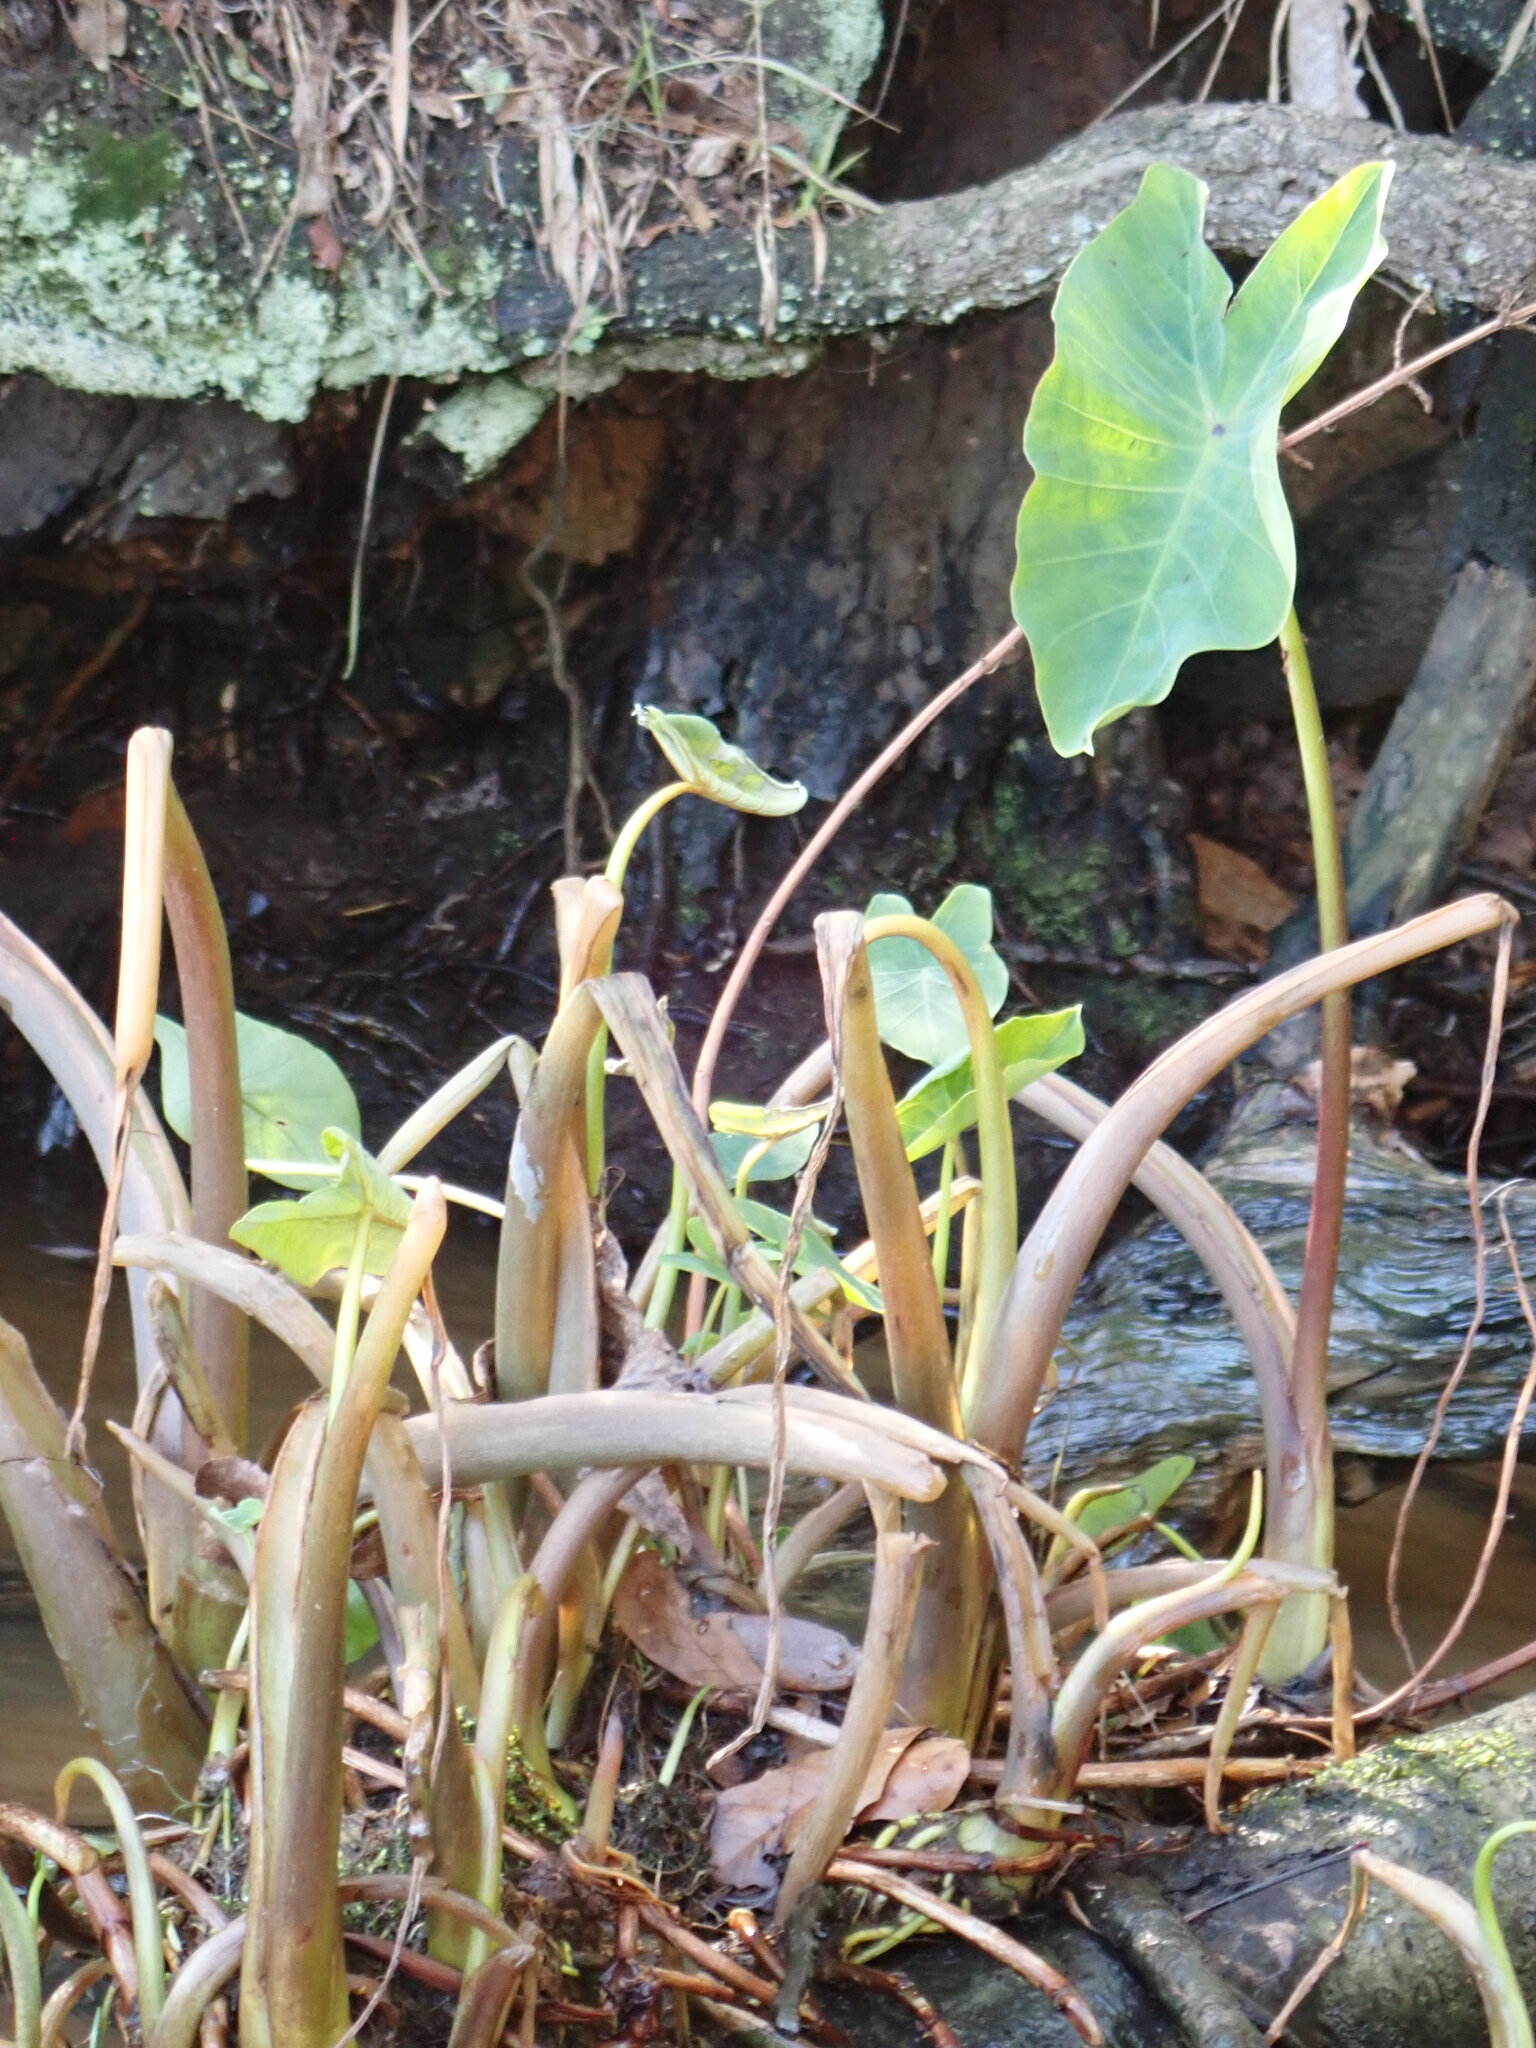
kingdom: Plantae
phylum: Tracheophyta
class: Liliopsida
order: Alismatales
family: Araceae
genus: Colocasia
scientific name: Colocasia esculenta
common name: Taro
